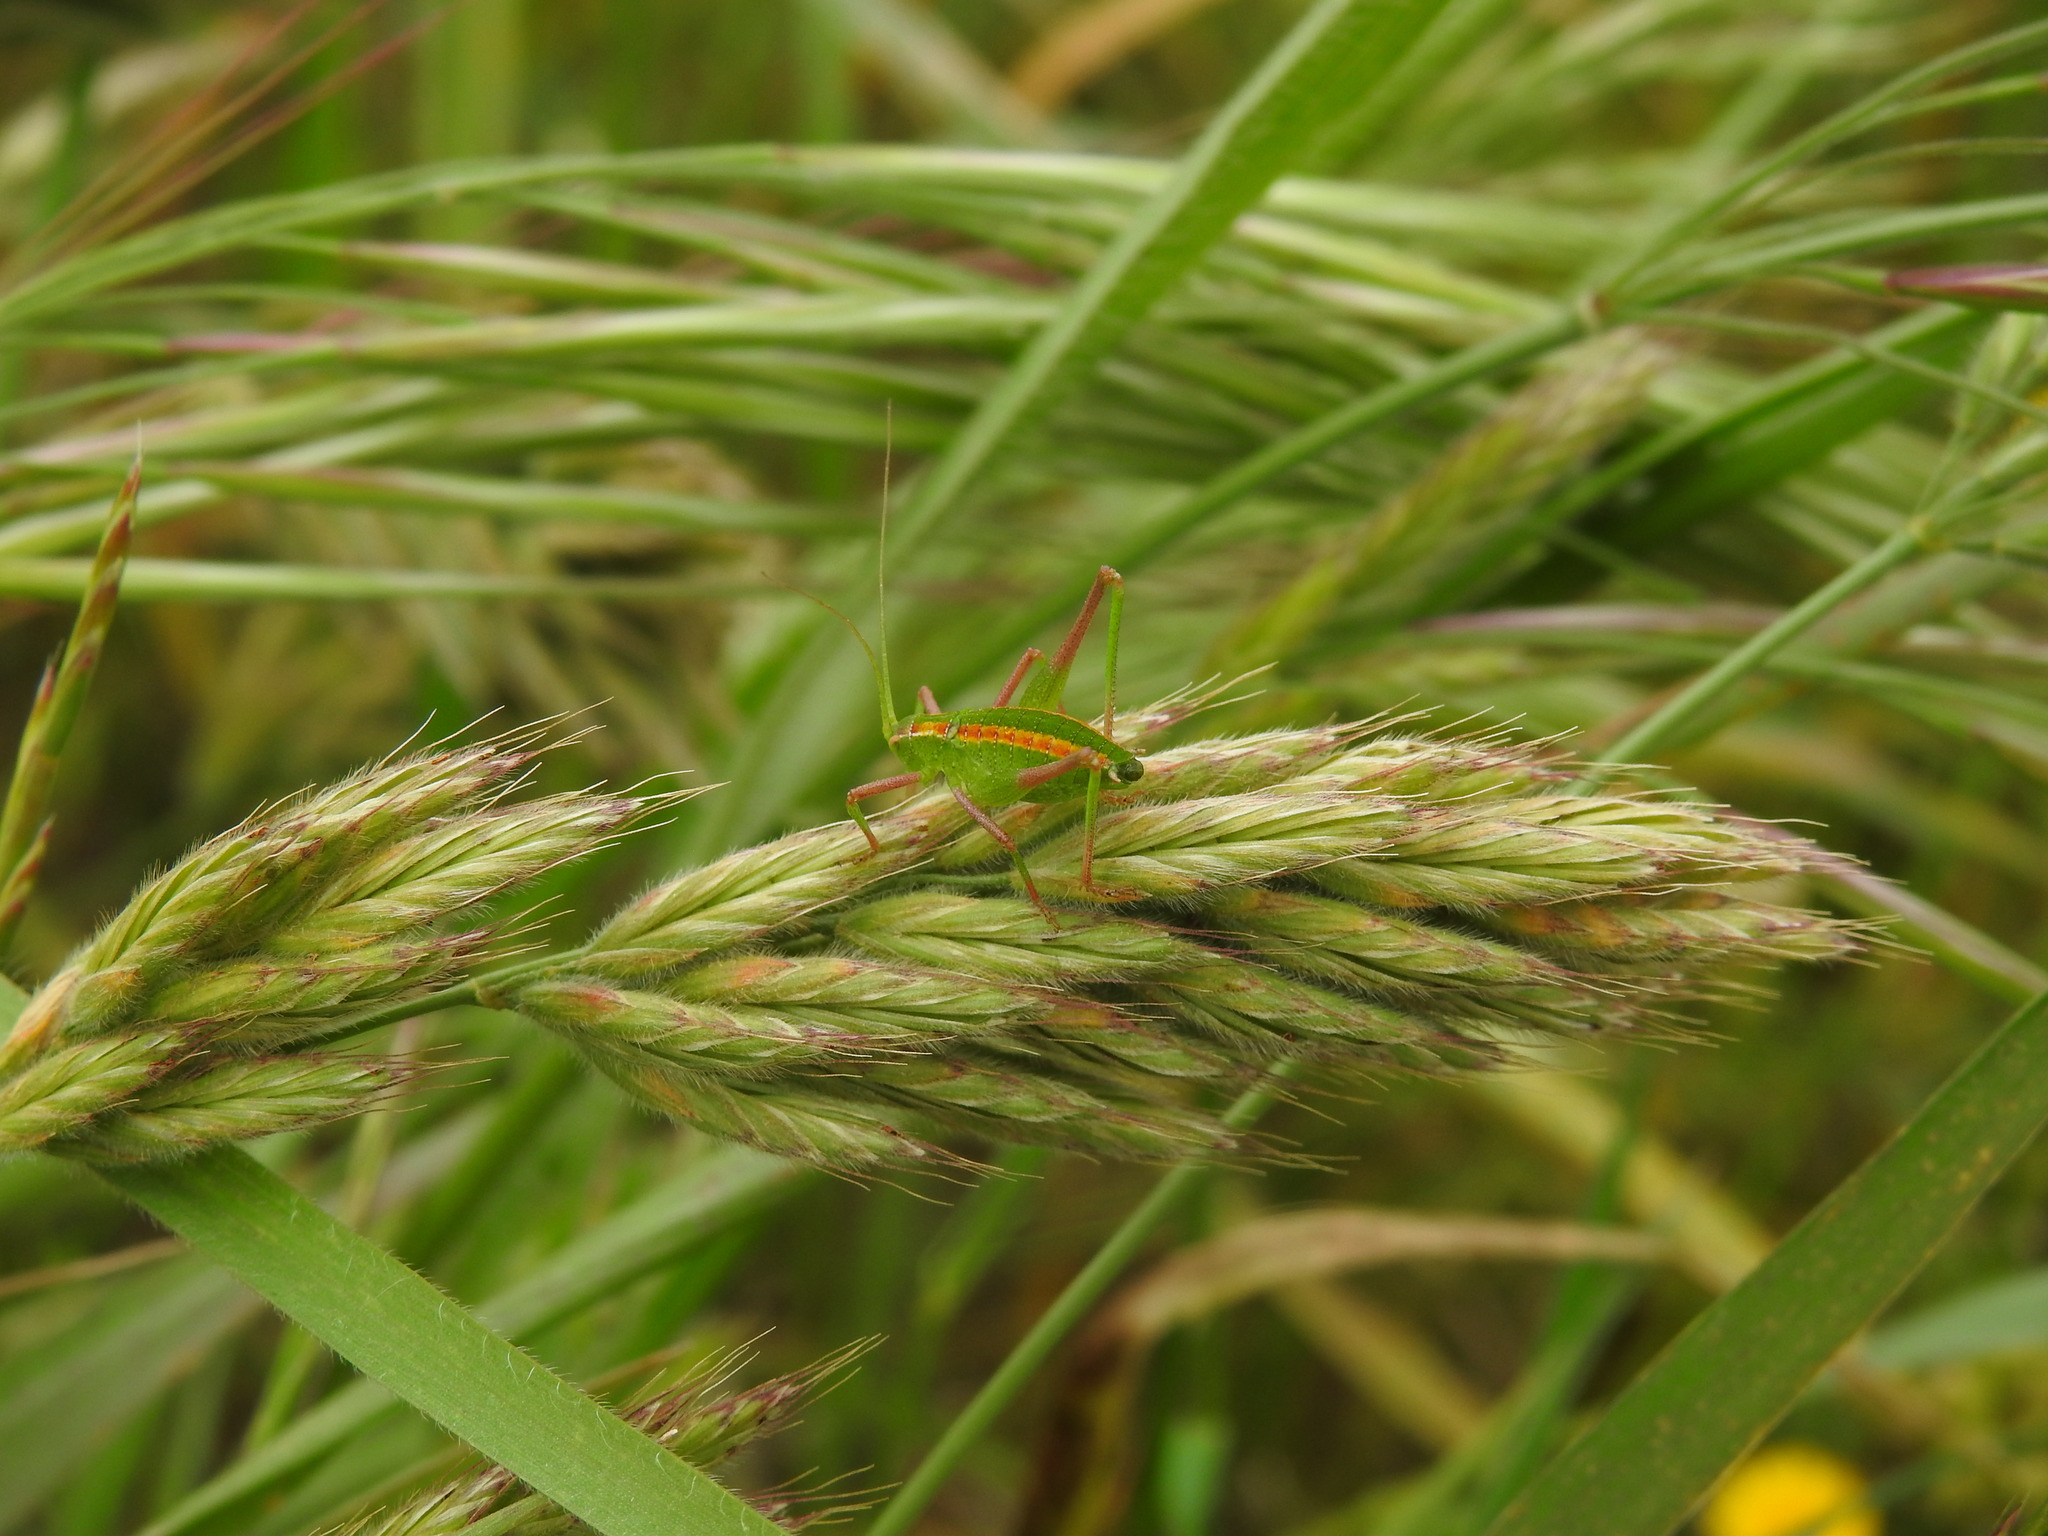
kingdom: Animalia
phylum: Arthropoda
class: Insecta
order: Orthoptera
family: Tettigoniidae
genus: Odontura
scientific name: Odontura glabricauda
